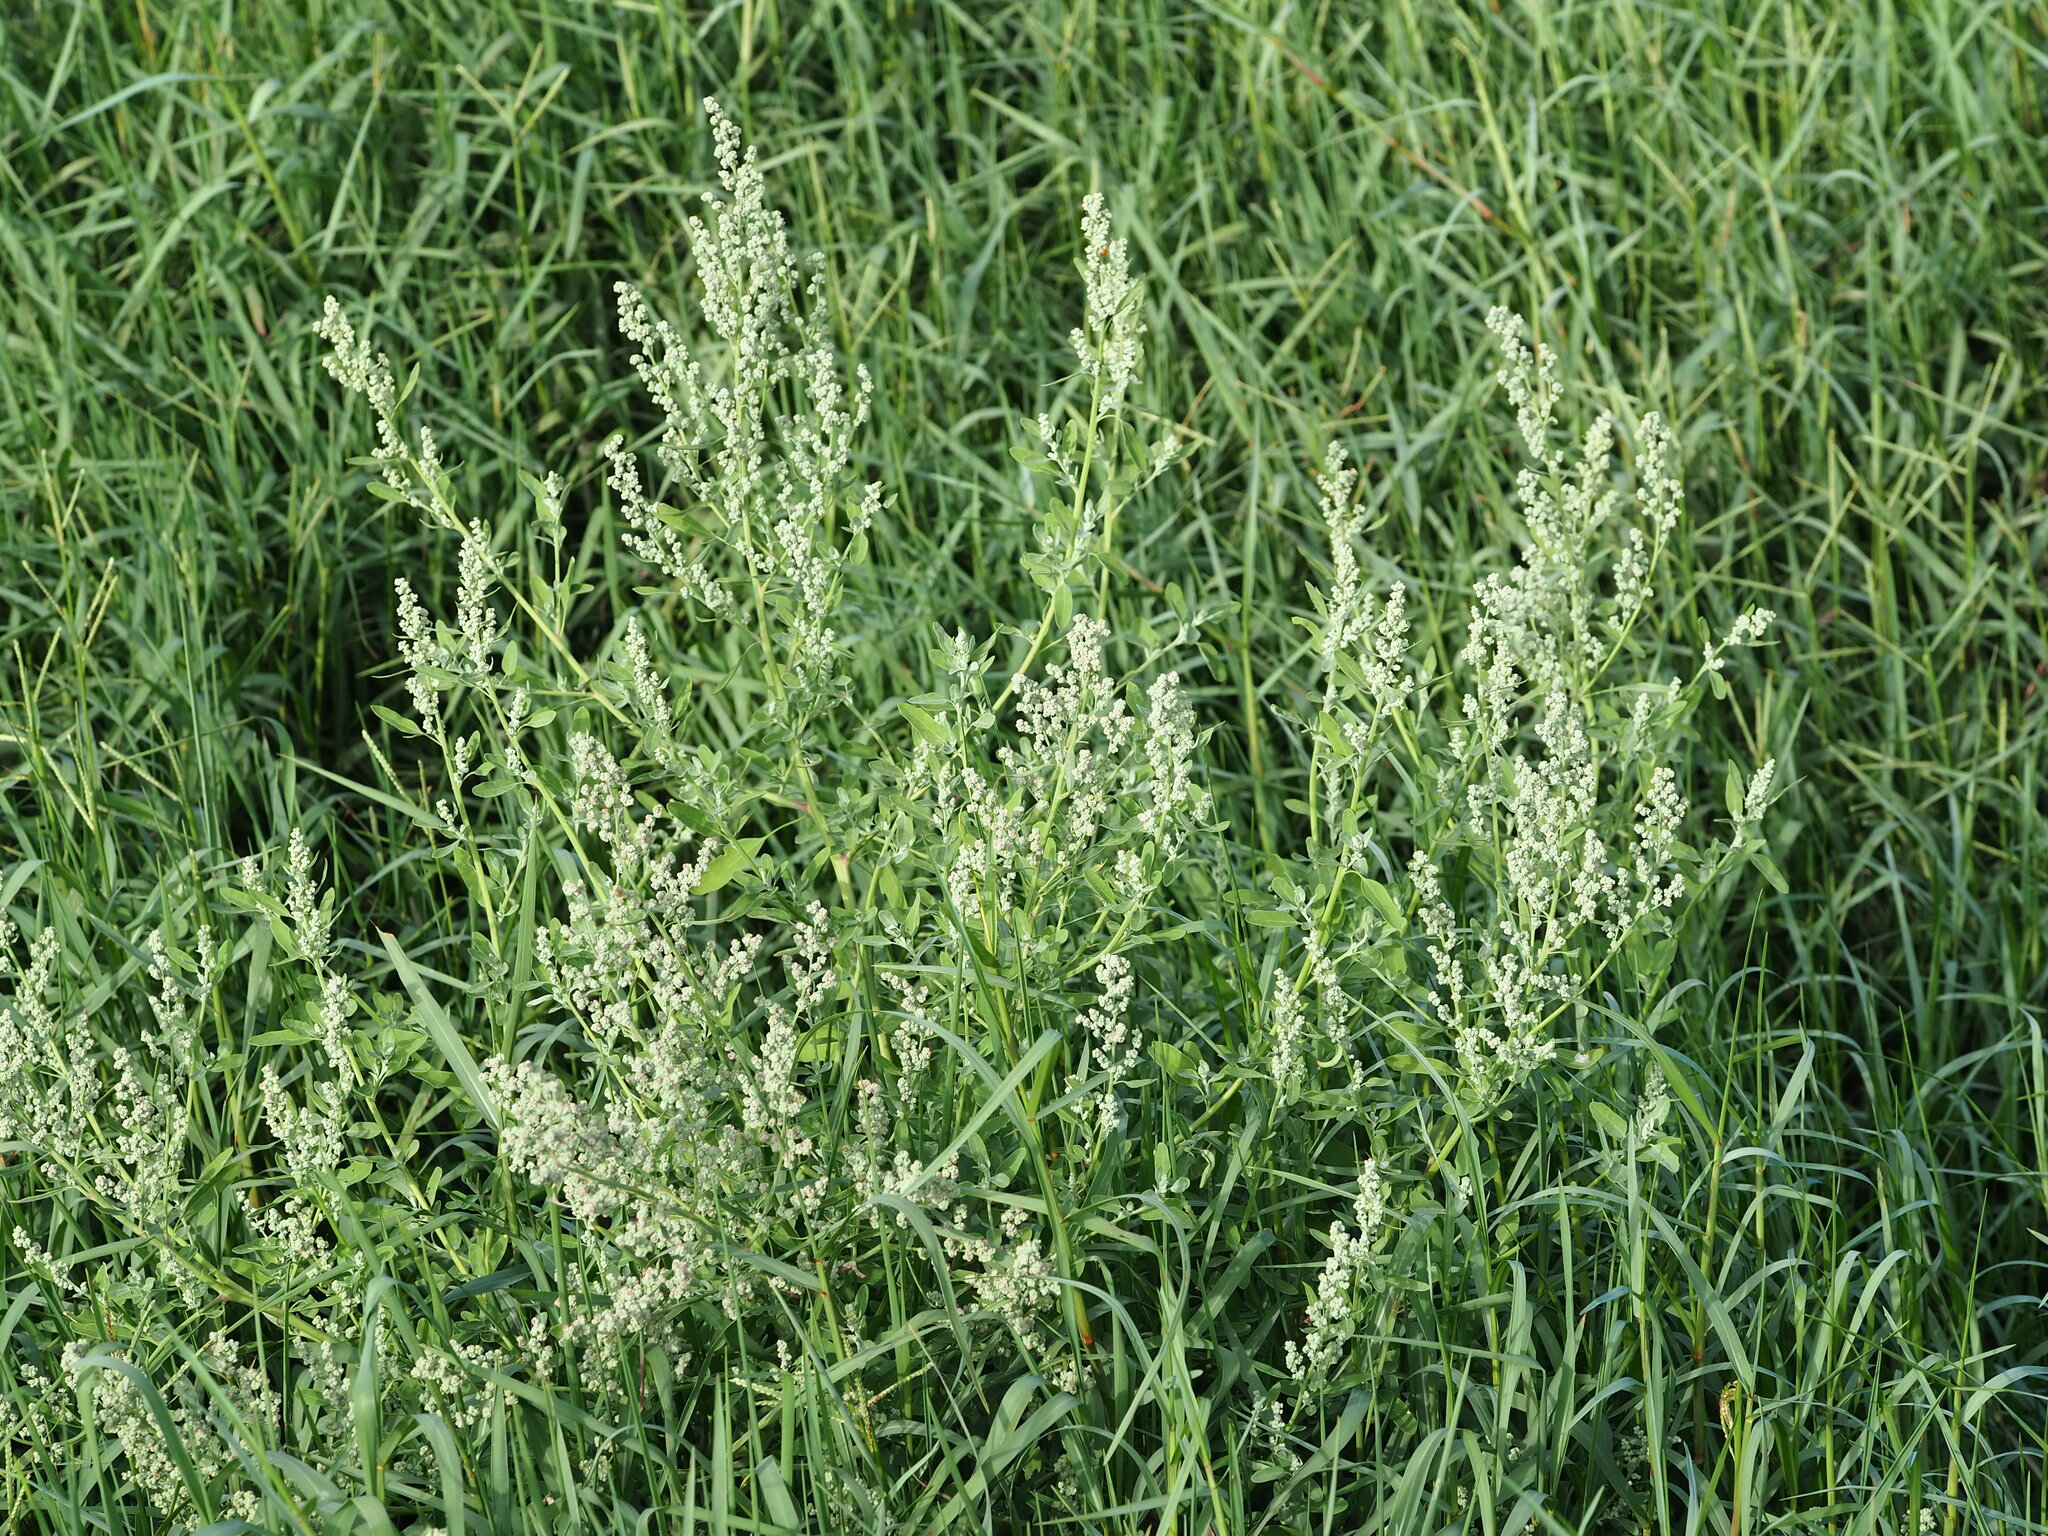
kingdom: Plantae
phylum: Tracheophyta
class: Magnoliopsida
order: Caryophyllales
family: Amaranthaceae
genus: Chenopodium
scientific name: Chenopodium ficifolium
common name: Fig-leaved goosefoot
